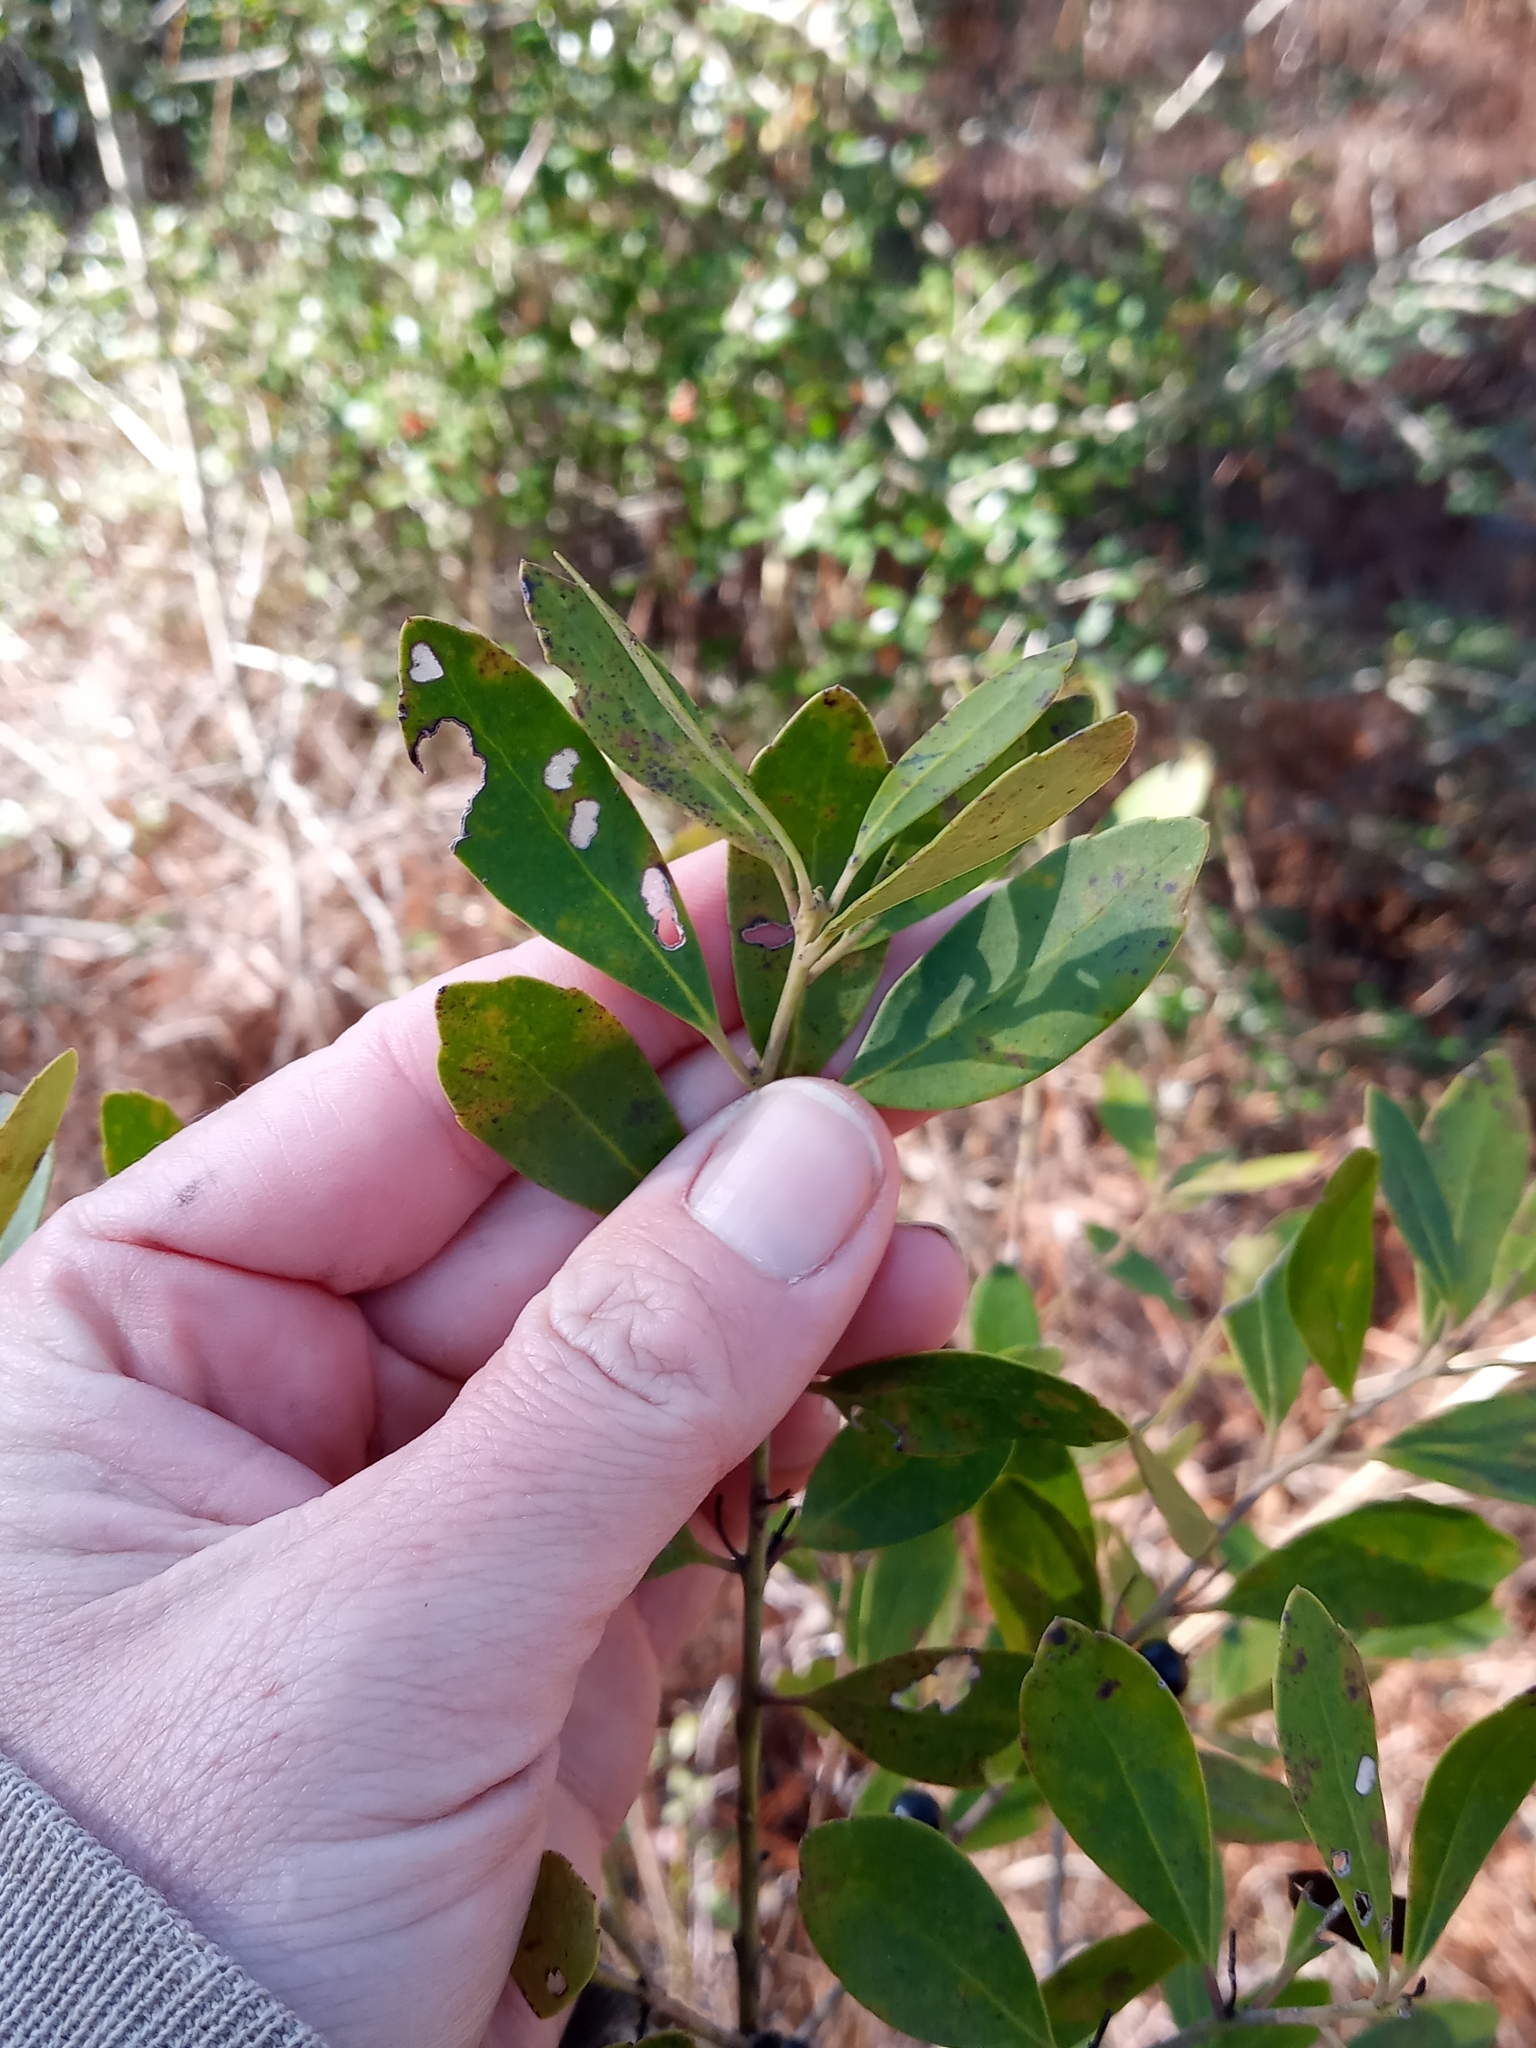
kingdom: Plantae
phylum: Tracheophyta
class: Magnoliopsida
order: Aquifoliales
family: Aquifoliaceae
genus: Ilex
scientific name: Ilex glabra
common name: Bitter gallberry
